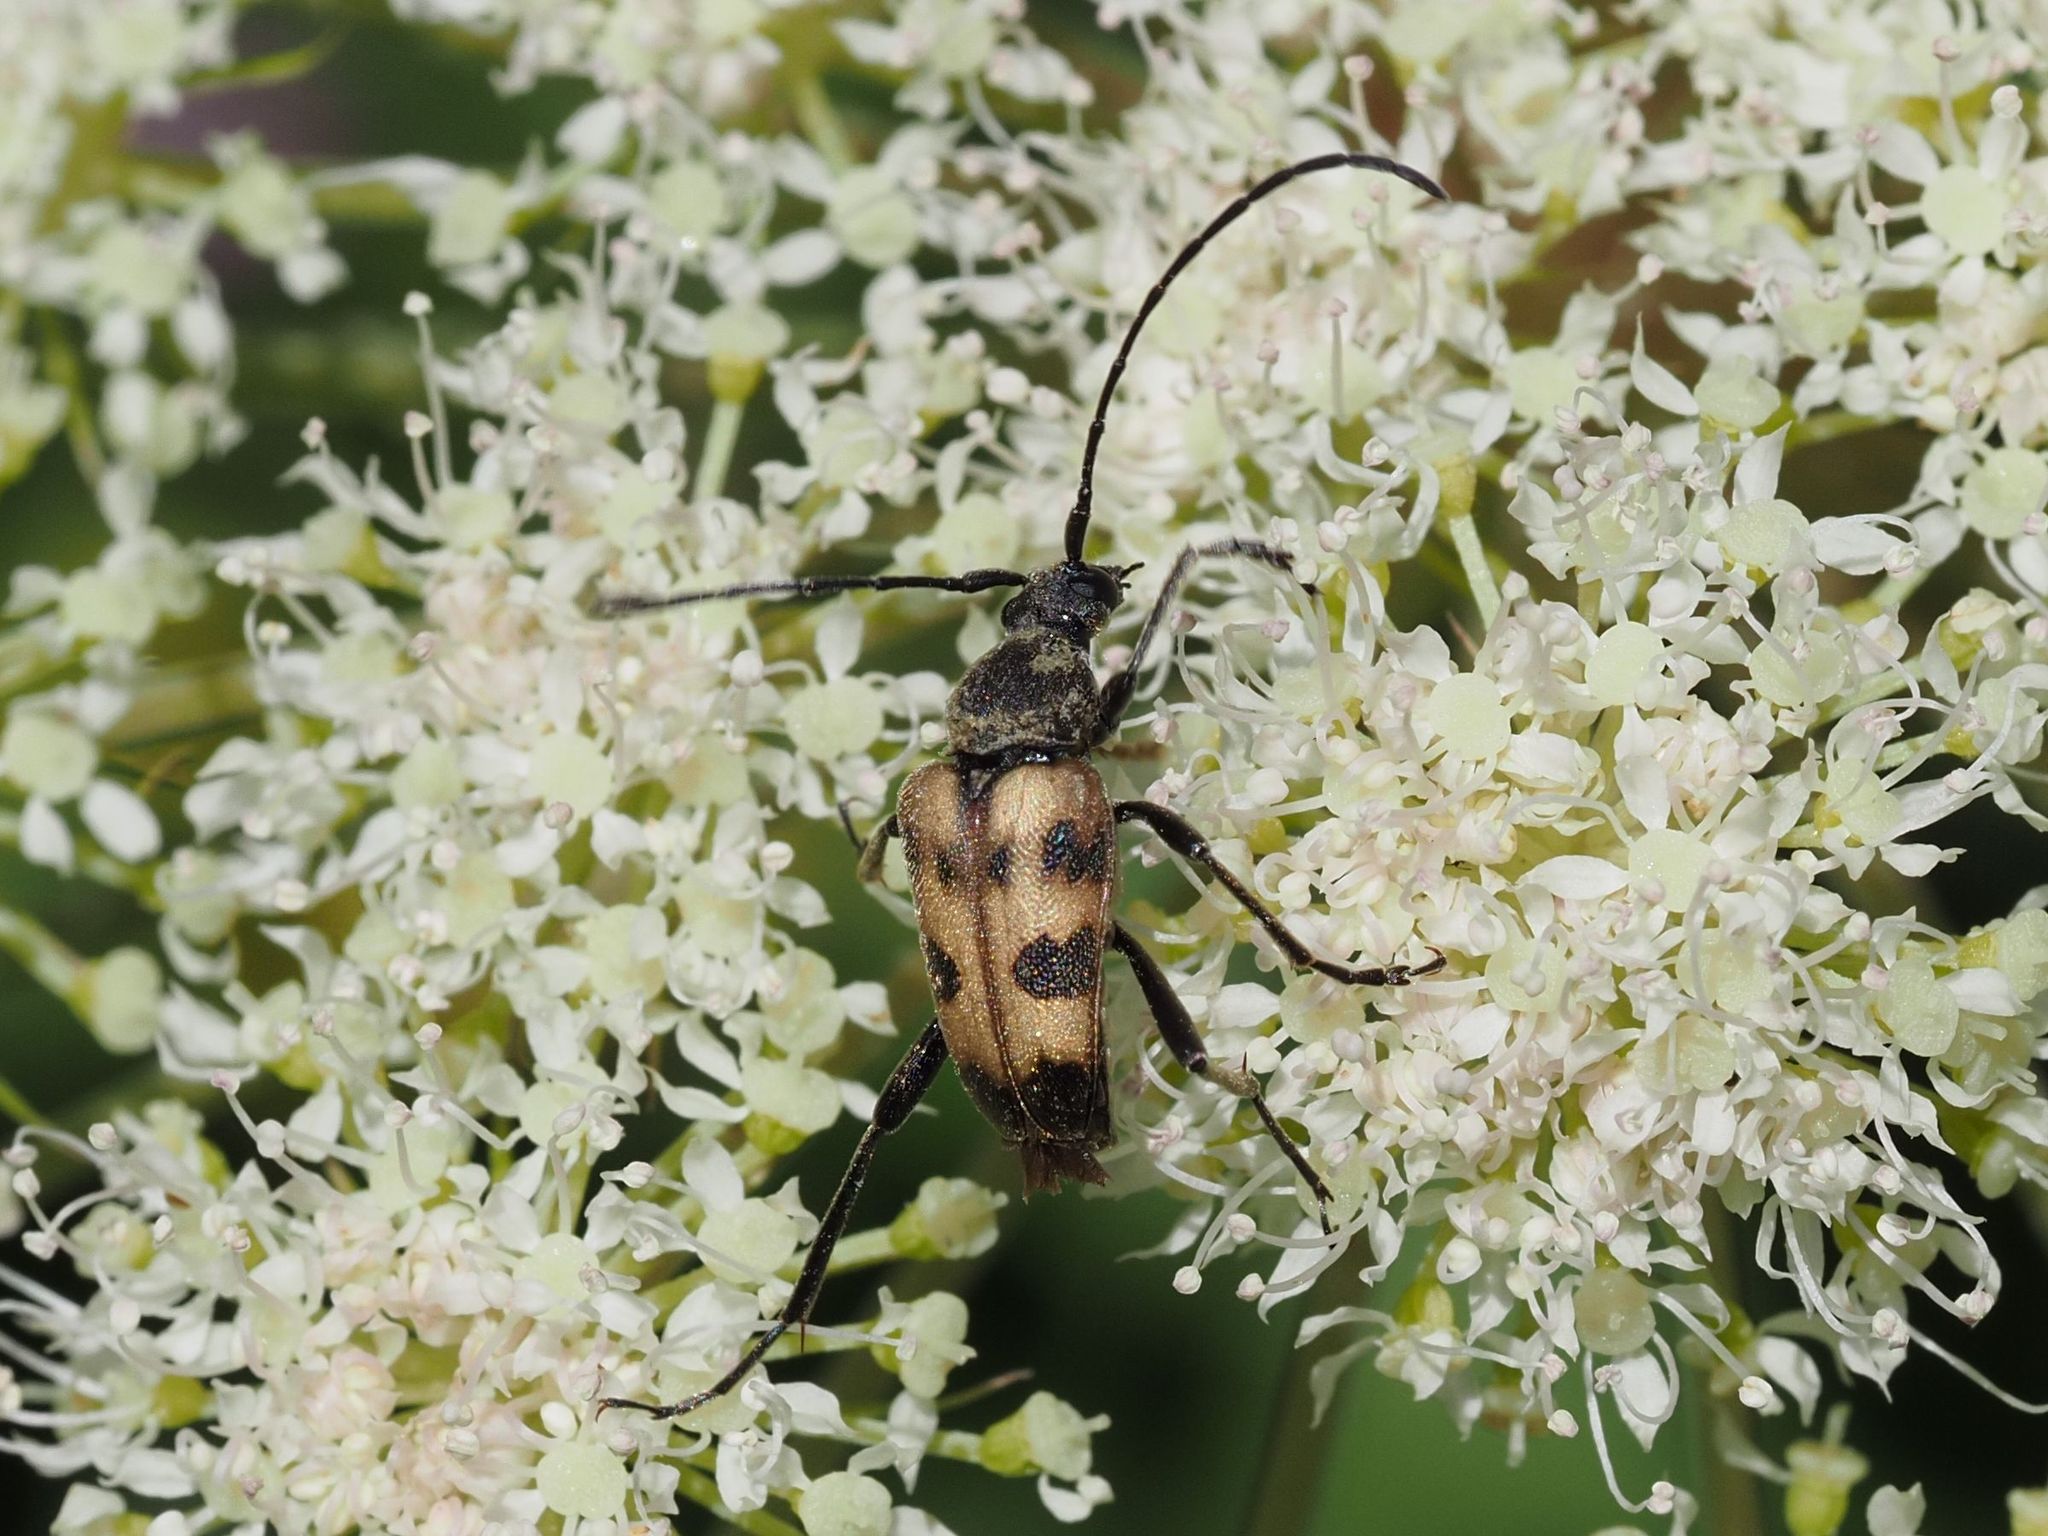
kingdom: Animalia
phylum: Arthropoda
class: Insecta
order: Coleoptera
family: Cerambycidae
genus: Pachytodes
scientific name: Pachytodes cerambyciformis
